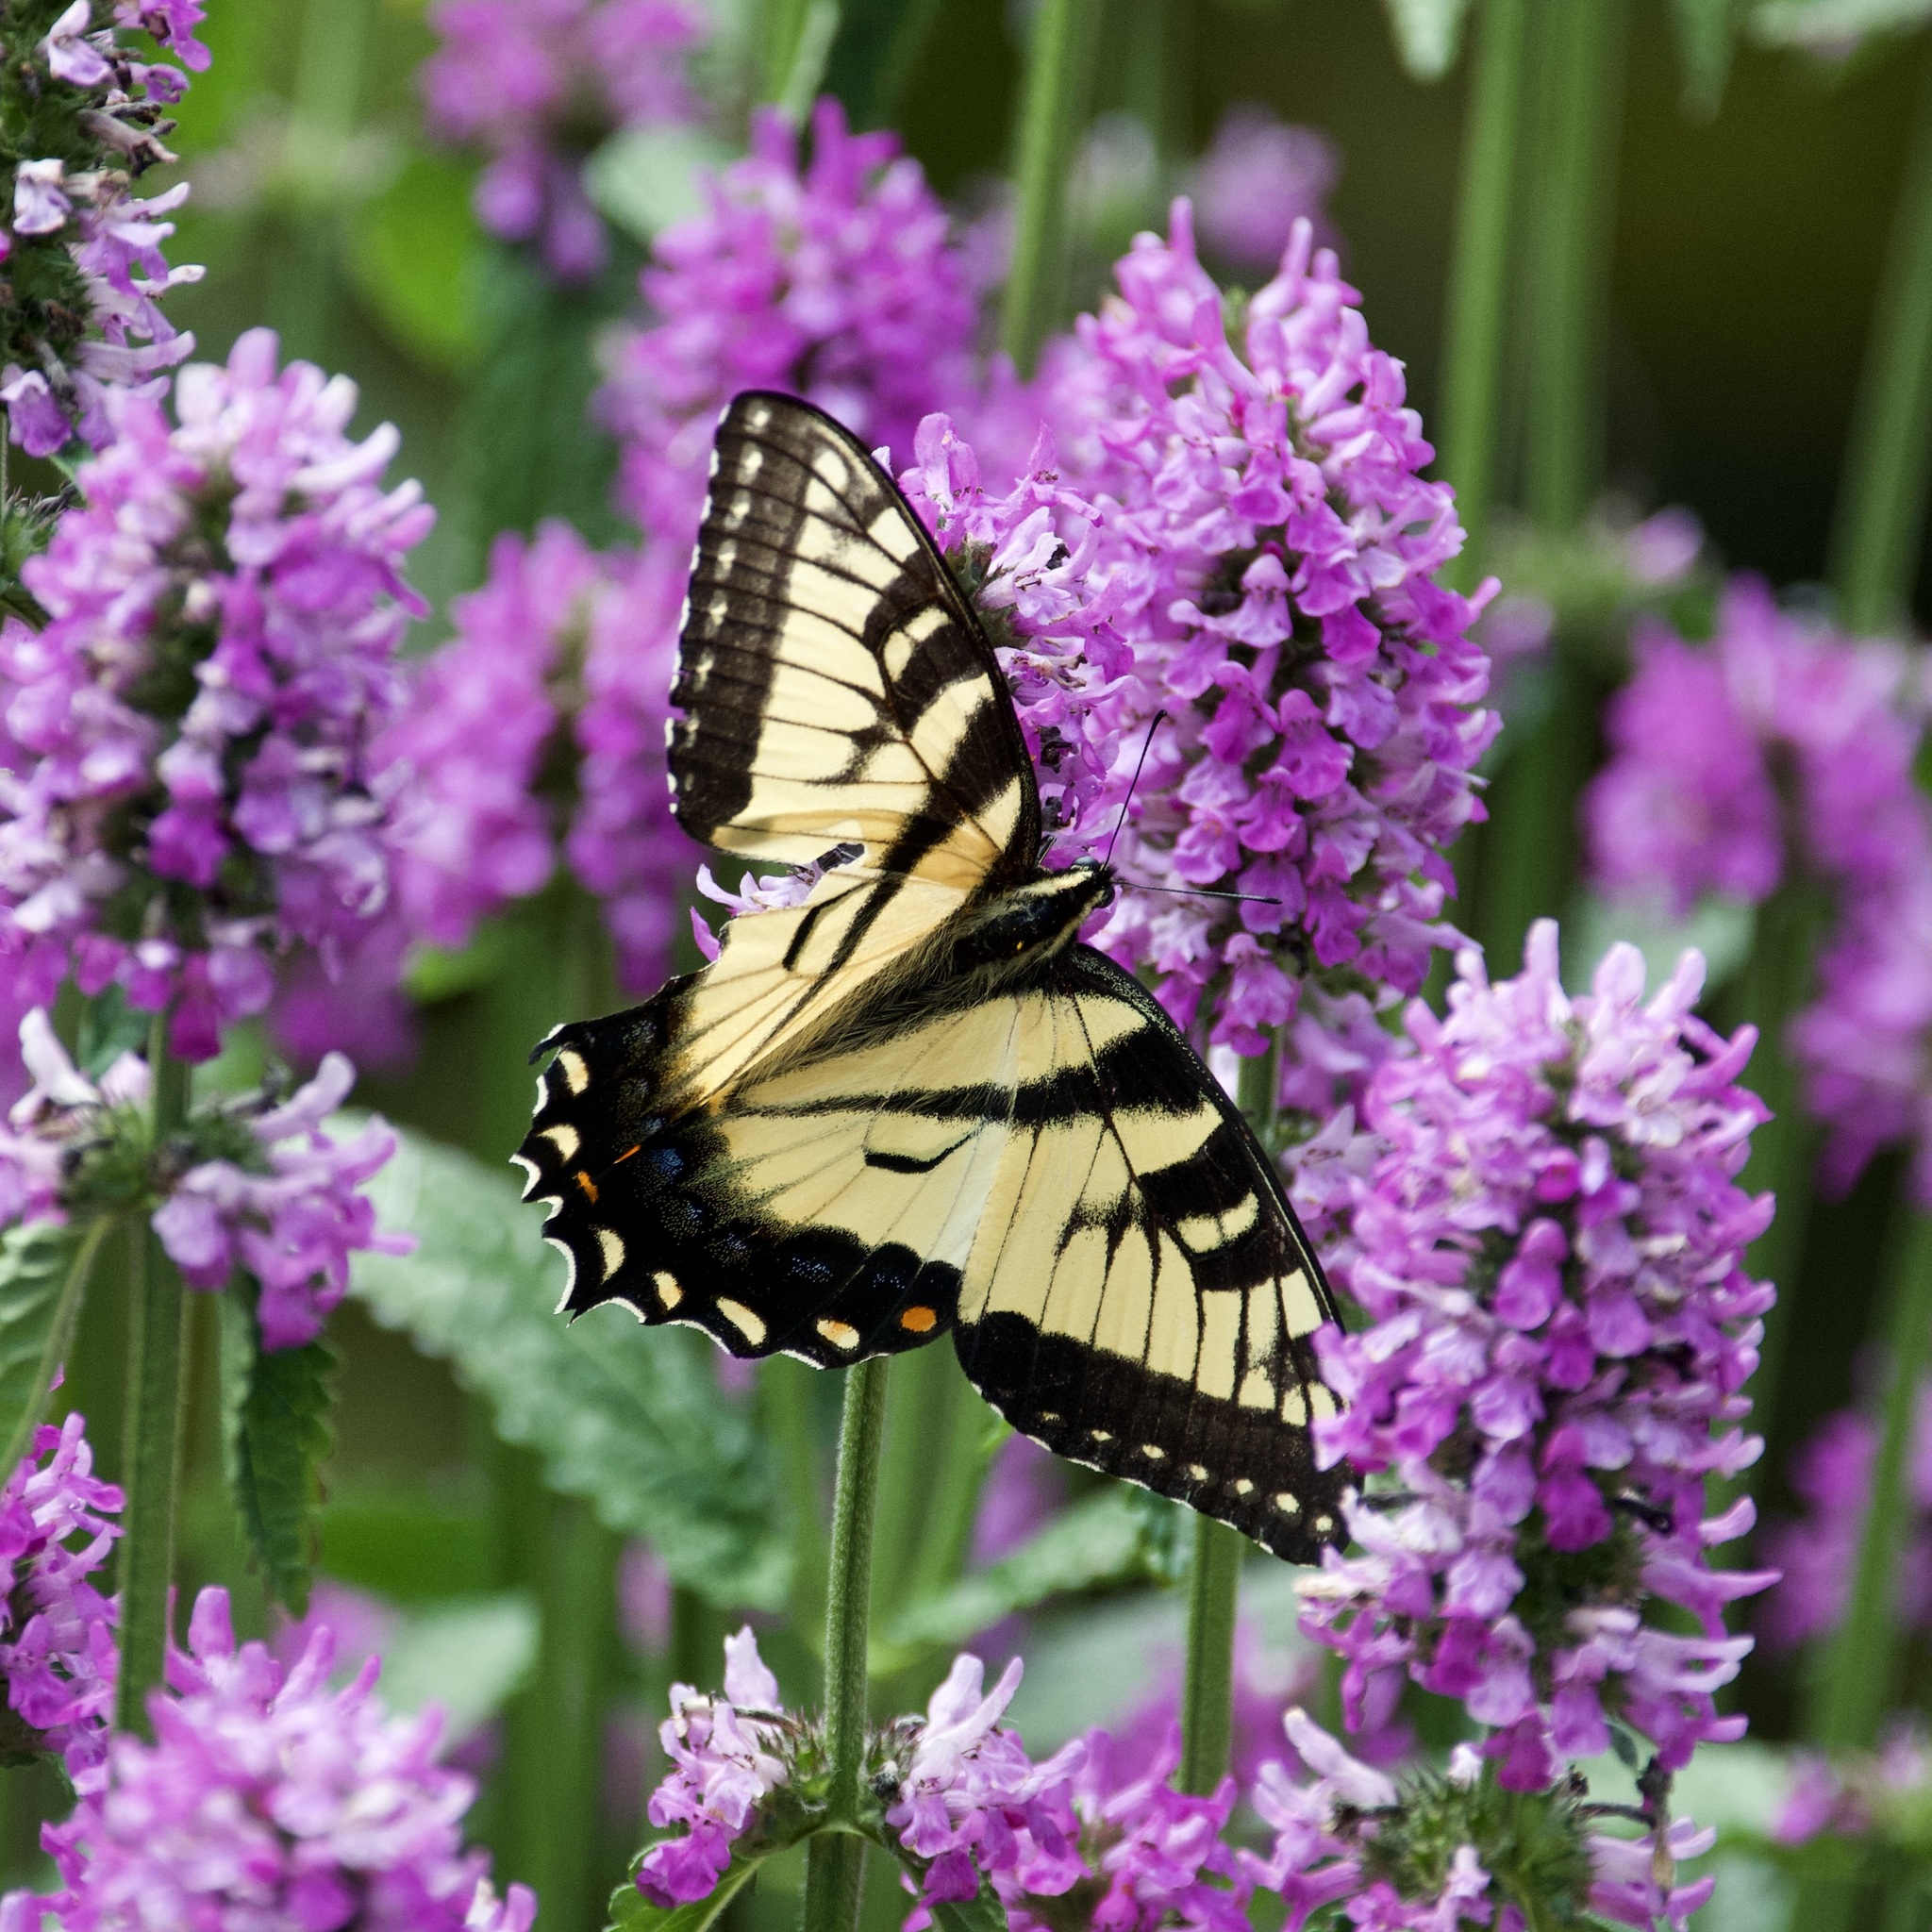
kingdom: Animalia
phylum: Arthropoda
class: Insecta
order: Lepidoptera
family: Papilionidae
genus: Papilio
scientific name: Papilio
